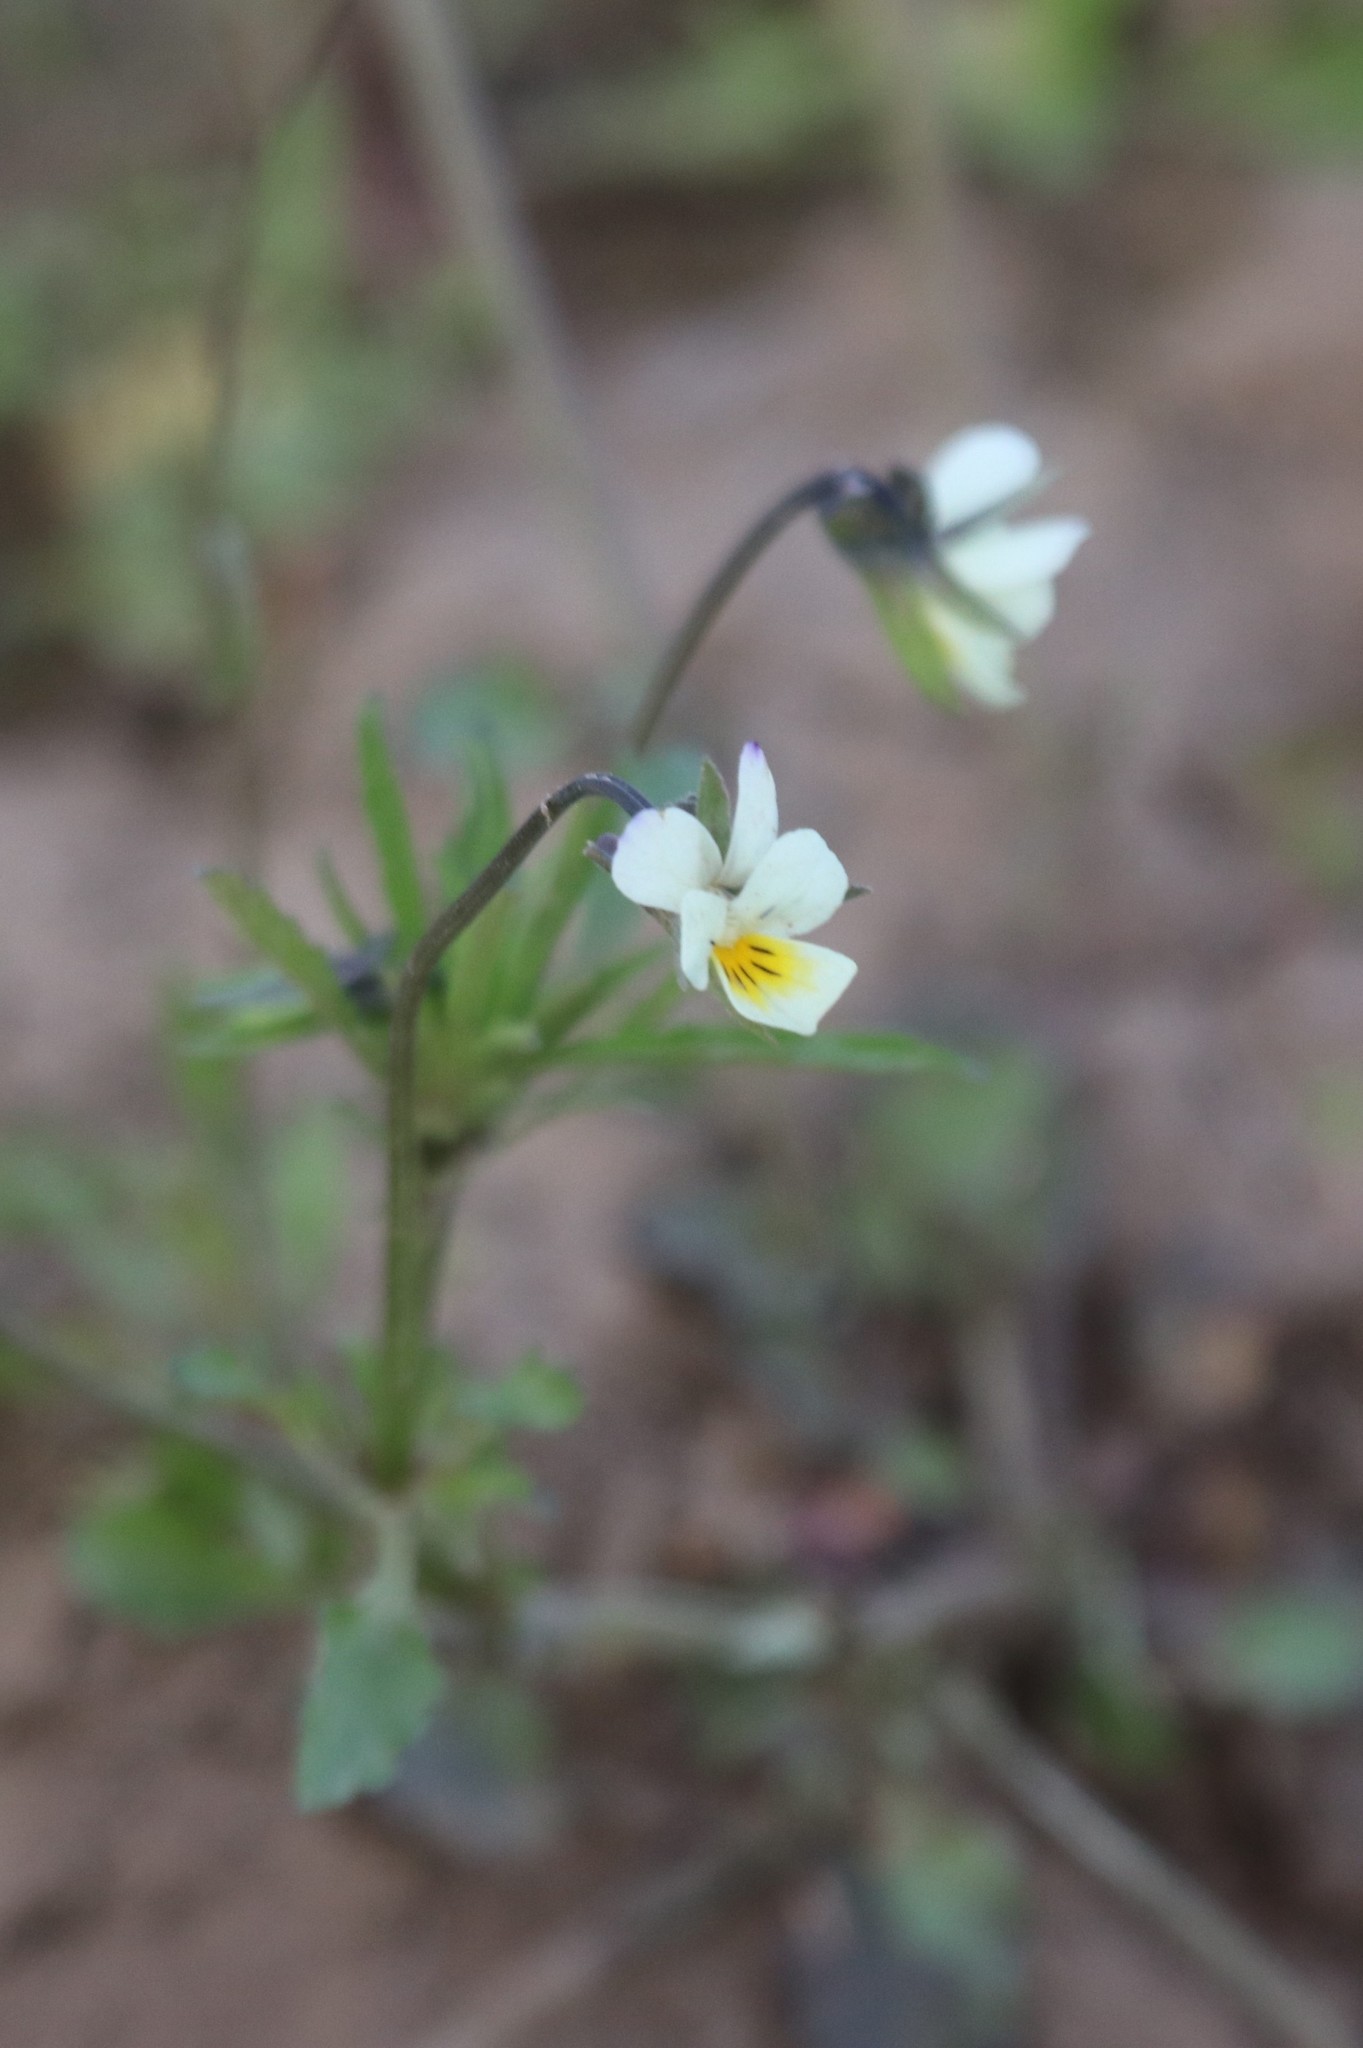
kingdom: Plantae
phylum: Tracheophyta
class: Magnoliopsida
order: Malpighiales
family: Violaceae
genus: Viola
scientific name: Viola arvensis
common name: Field pansy
